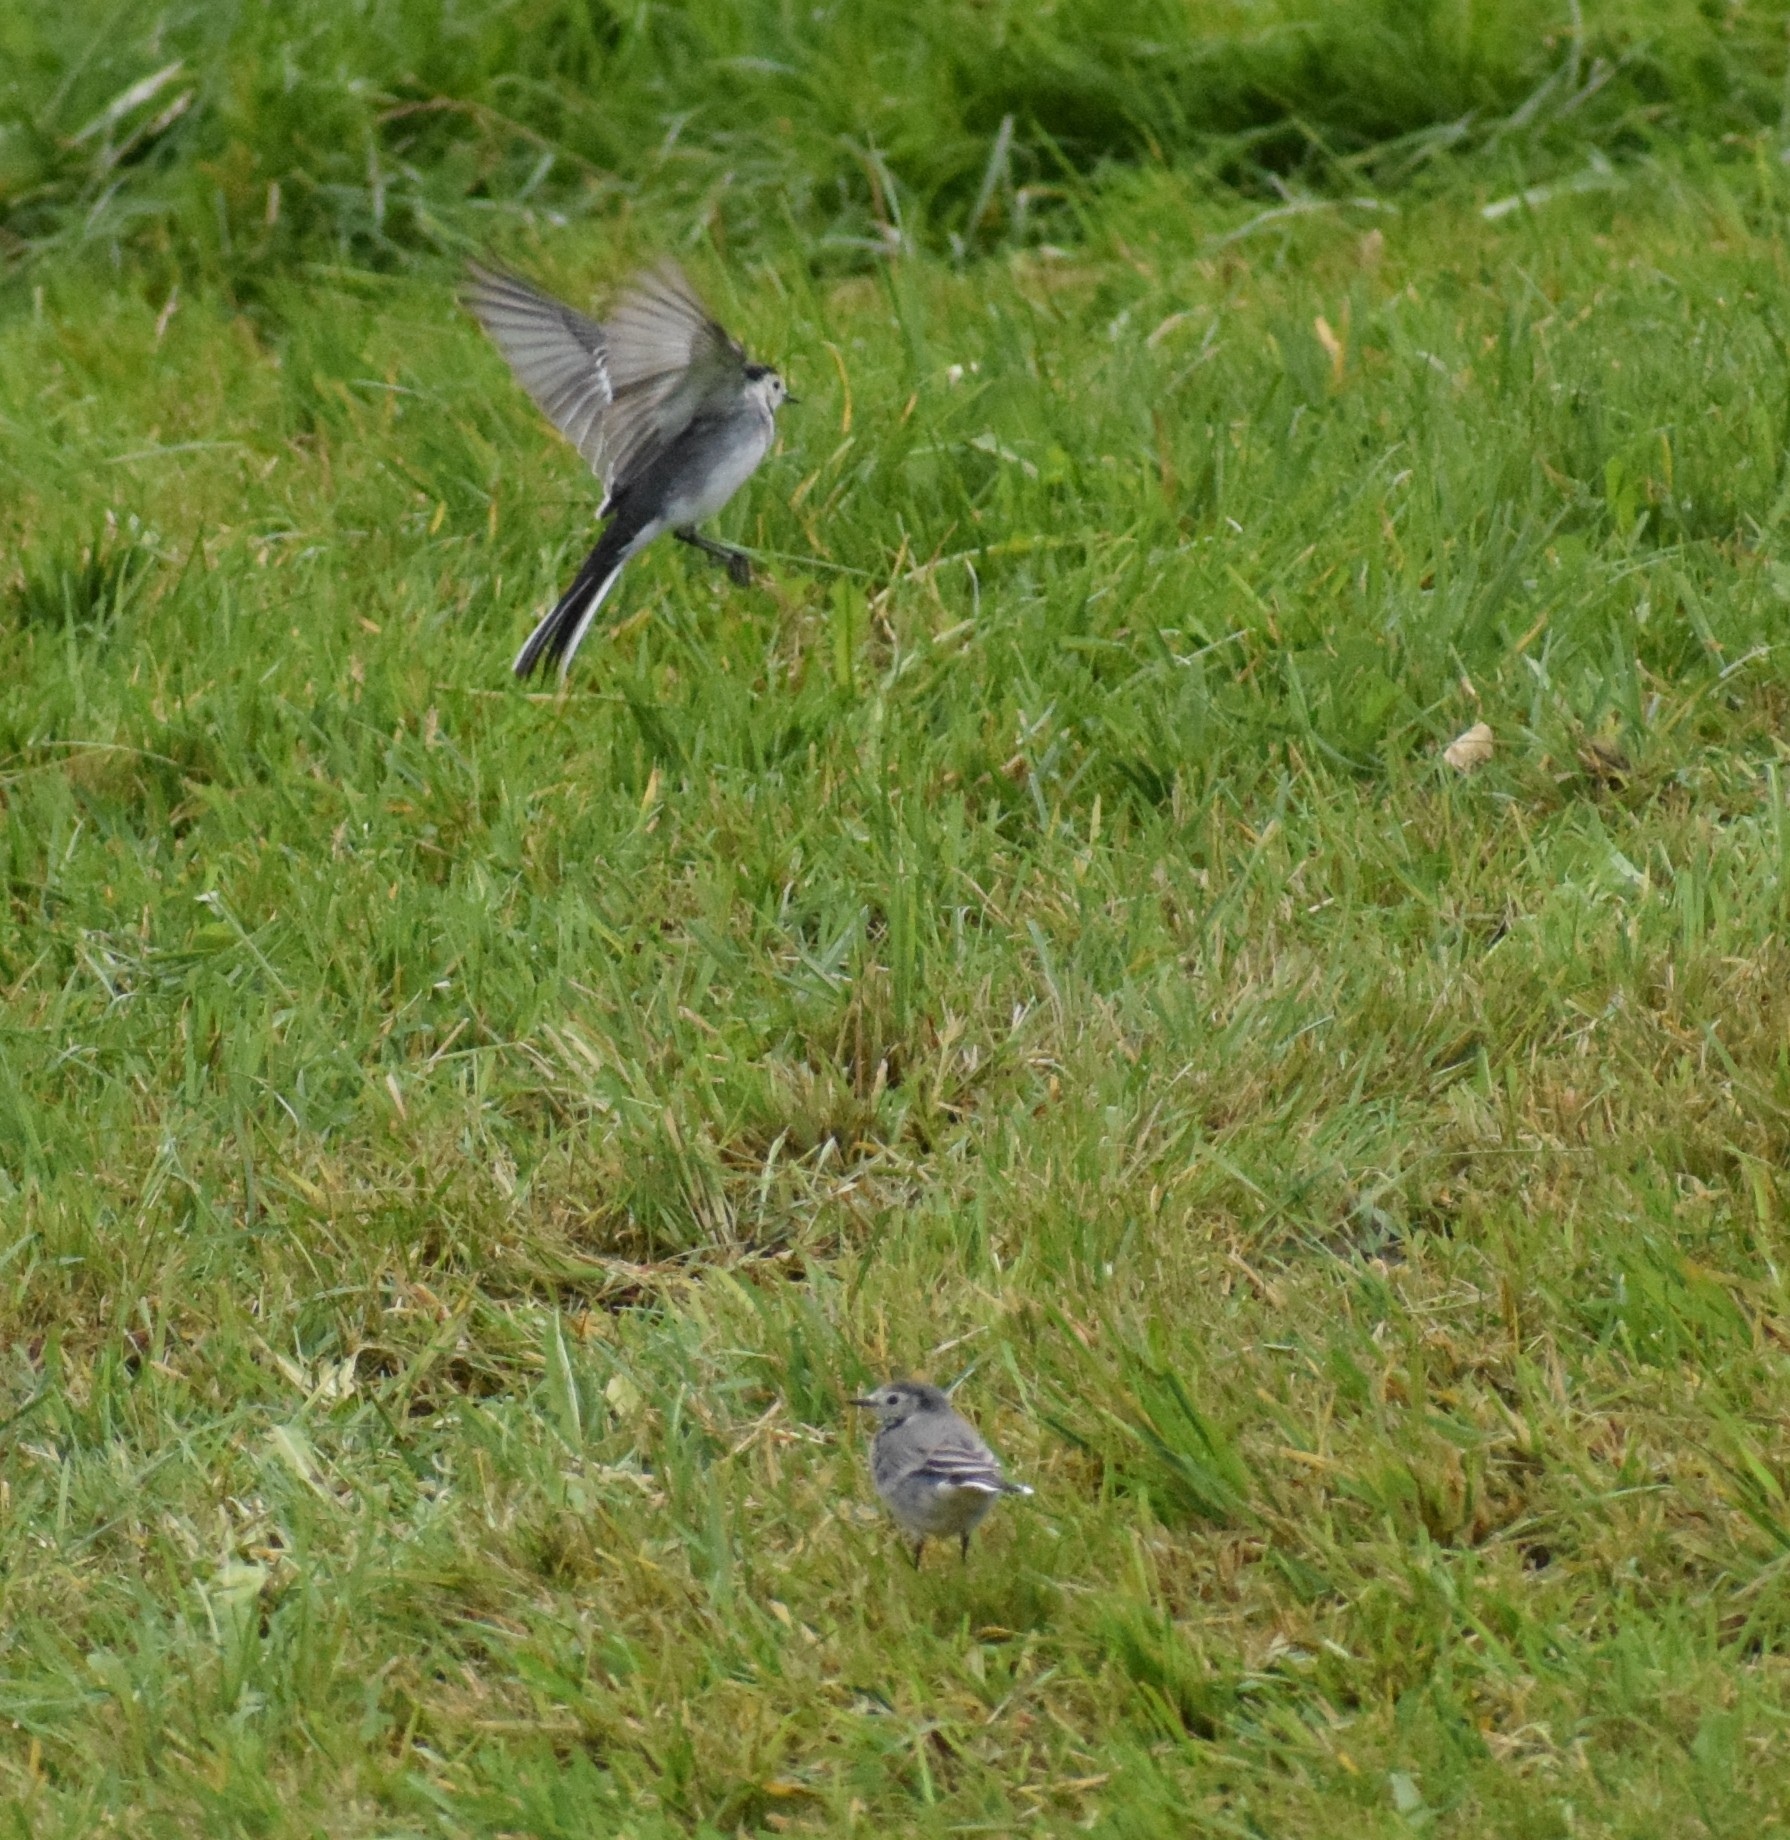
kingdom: Animalia
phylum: Chordata
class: Aves
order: Passeriformes
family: Motacillidae
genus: Motacilla
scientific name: Motacilla alba
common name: White wagtail
